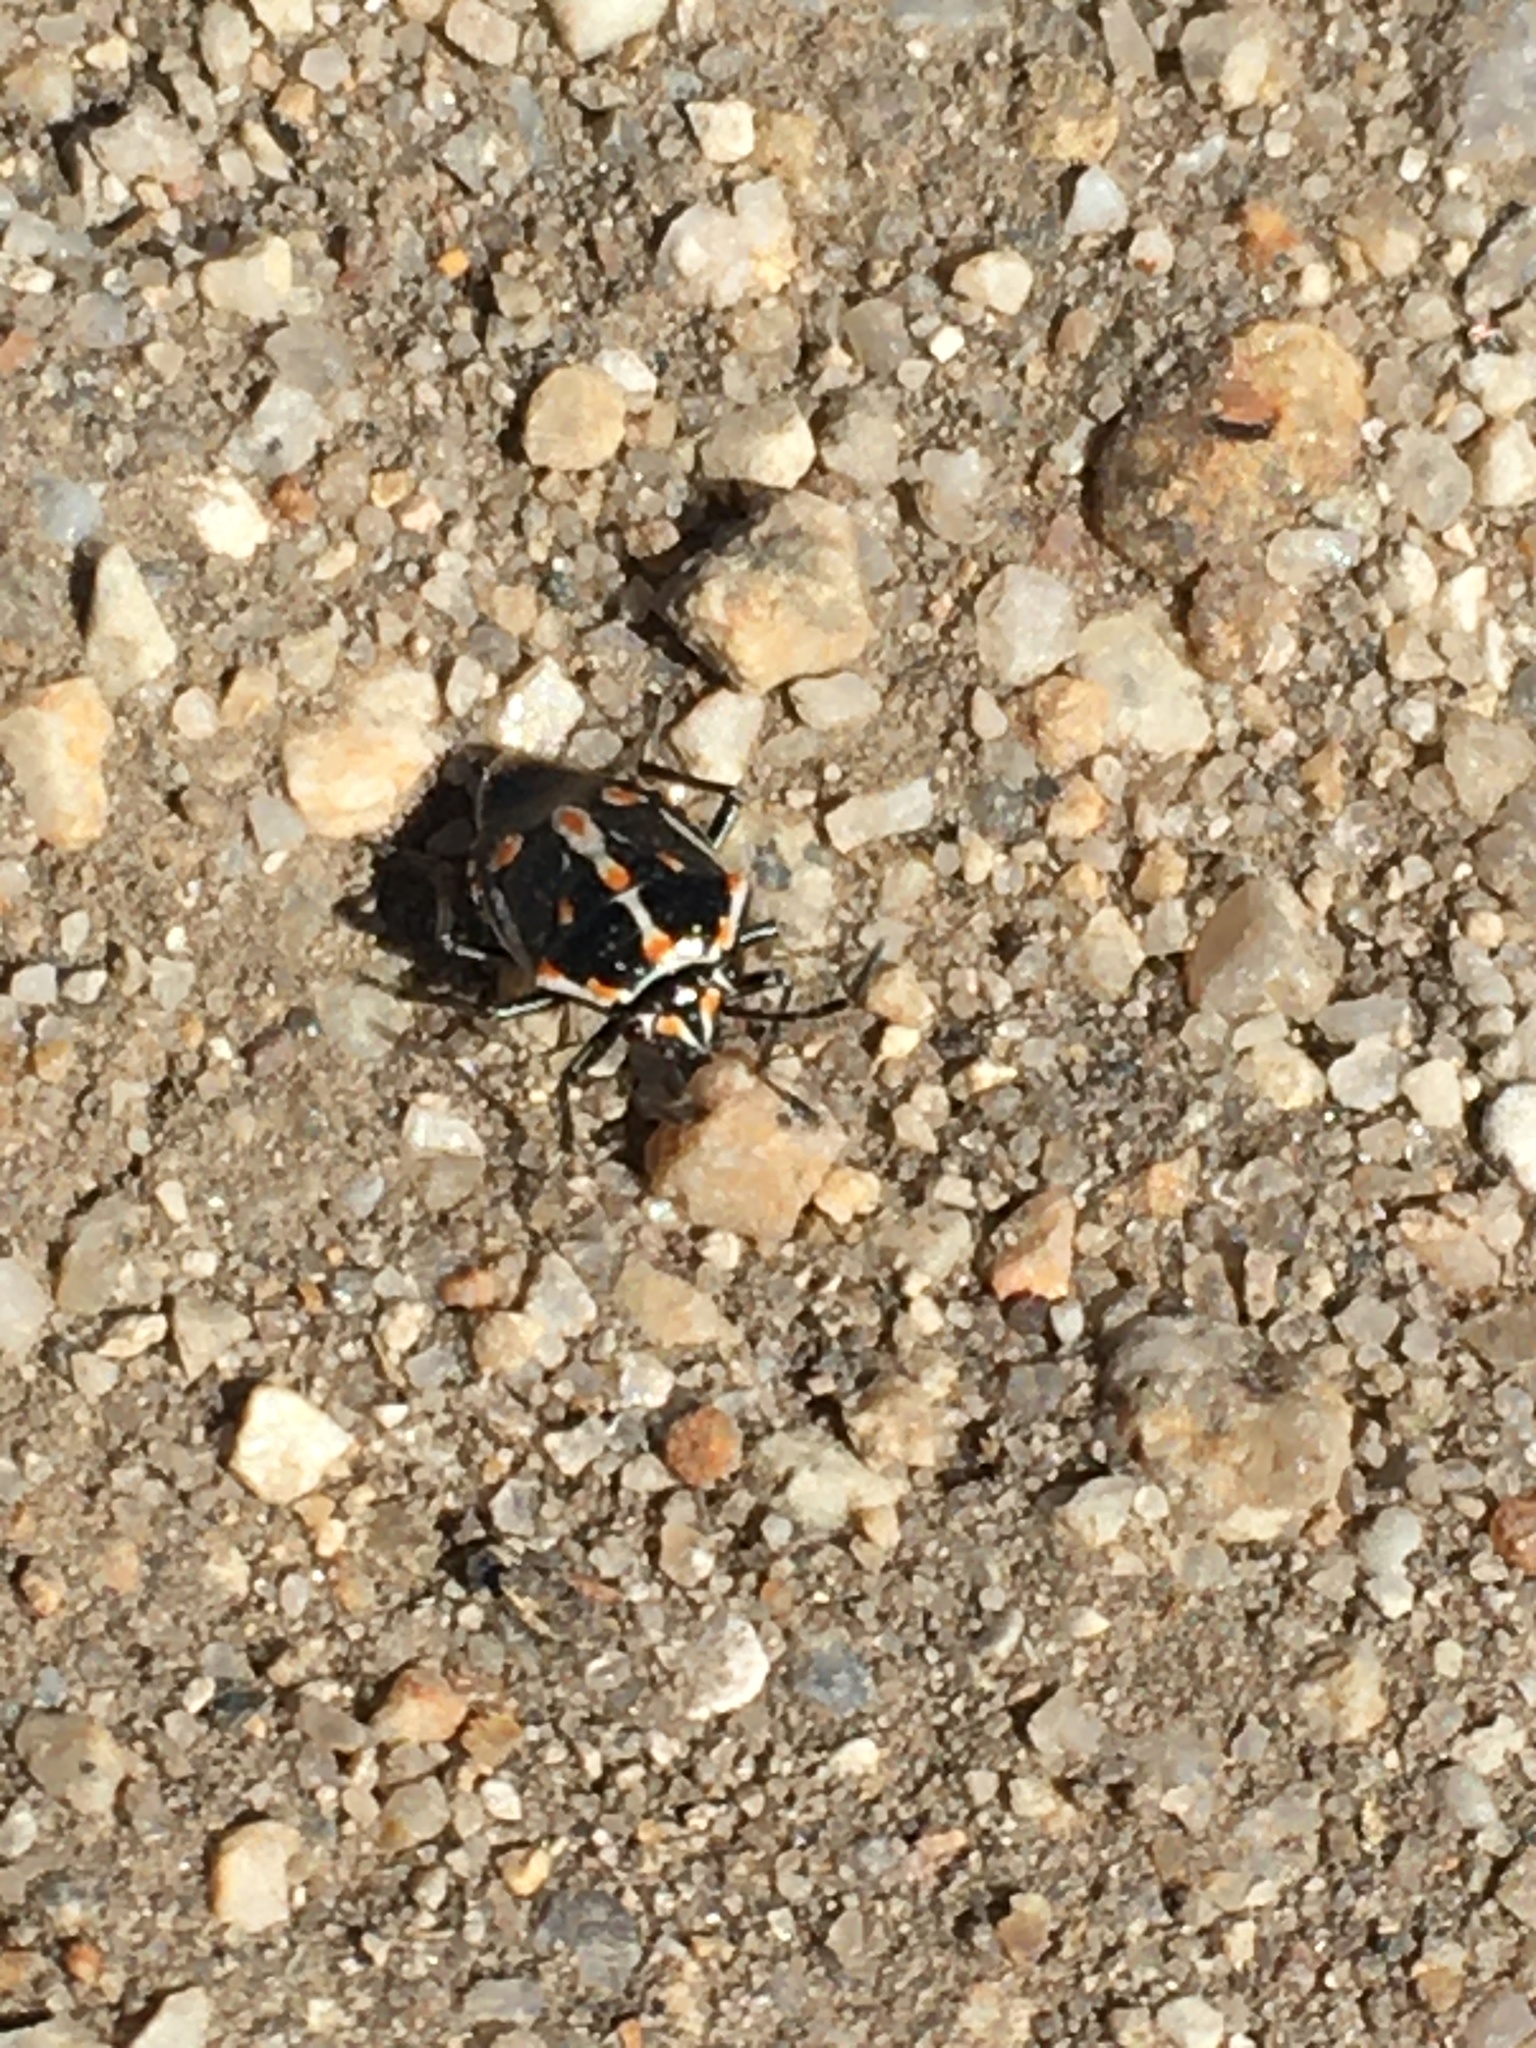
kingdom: Animalia
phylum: Arthropoda
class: Insecta
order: Hemiptera
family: Pentatomidae
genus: Bagrada
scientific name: Bagrada hilaris
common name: Bagrada bug
